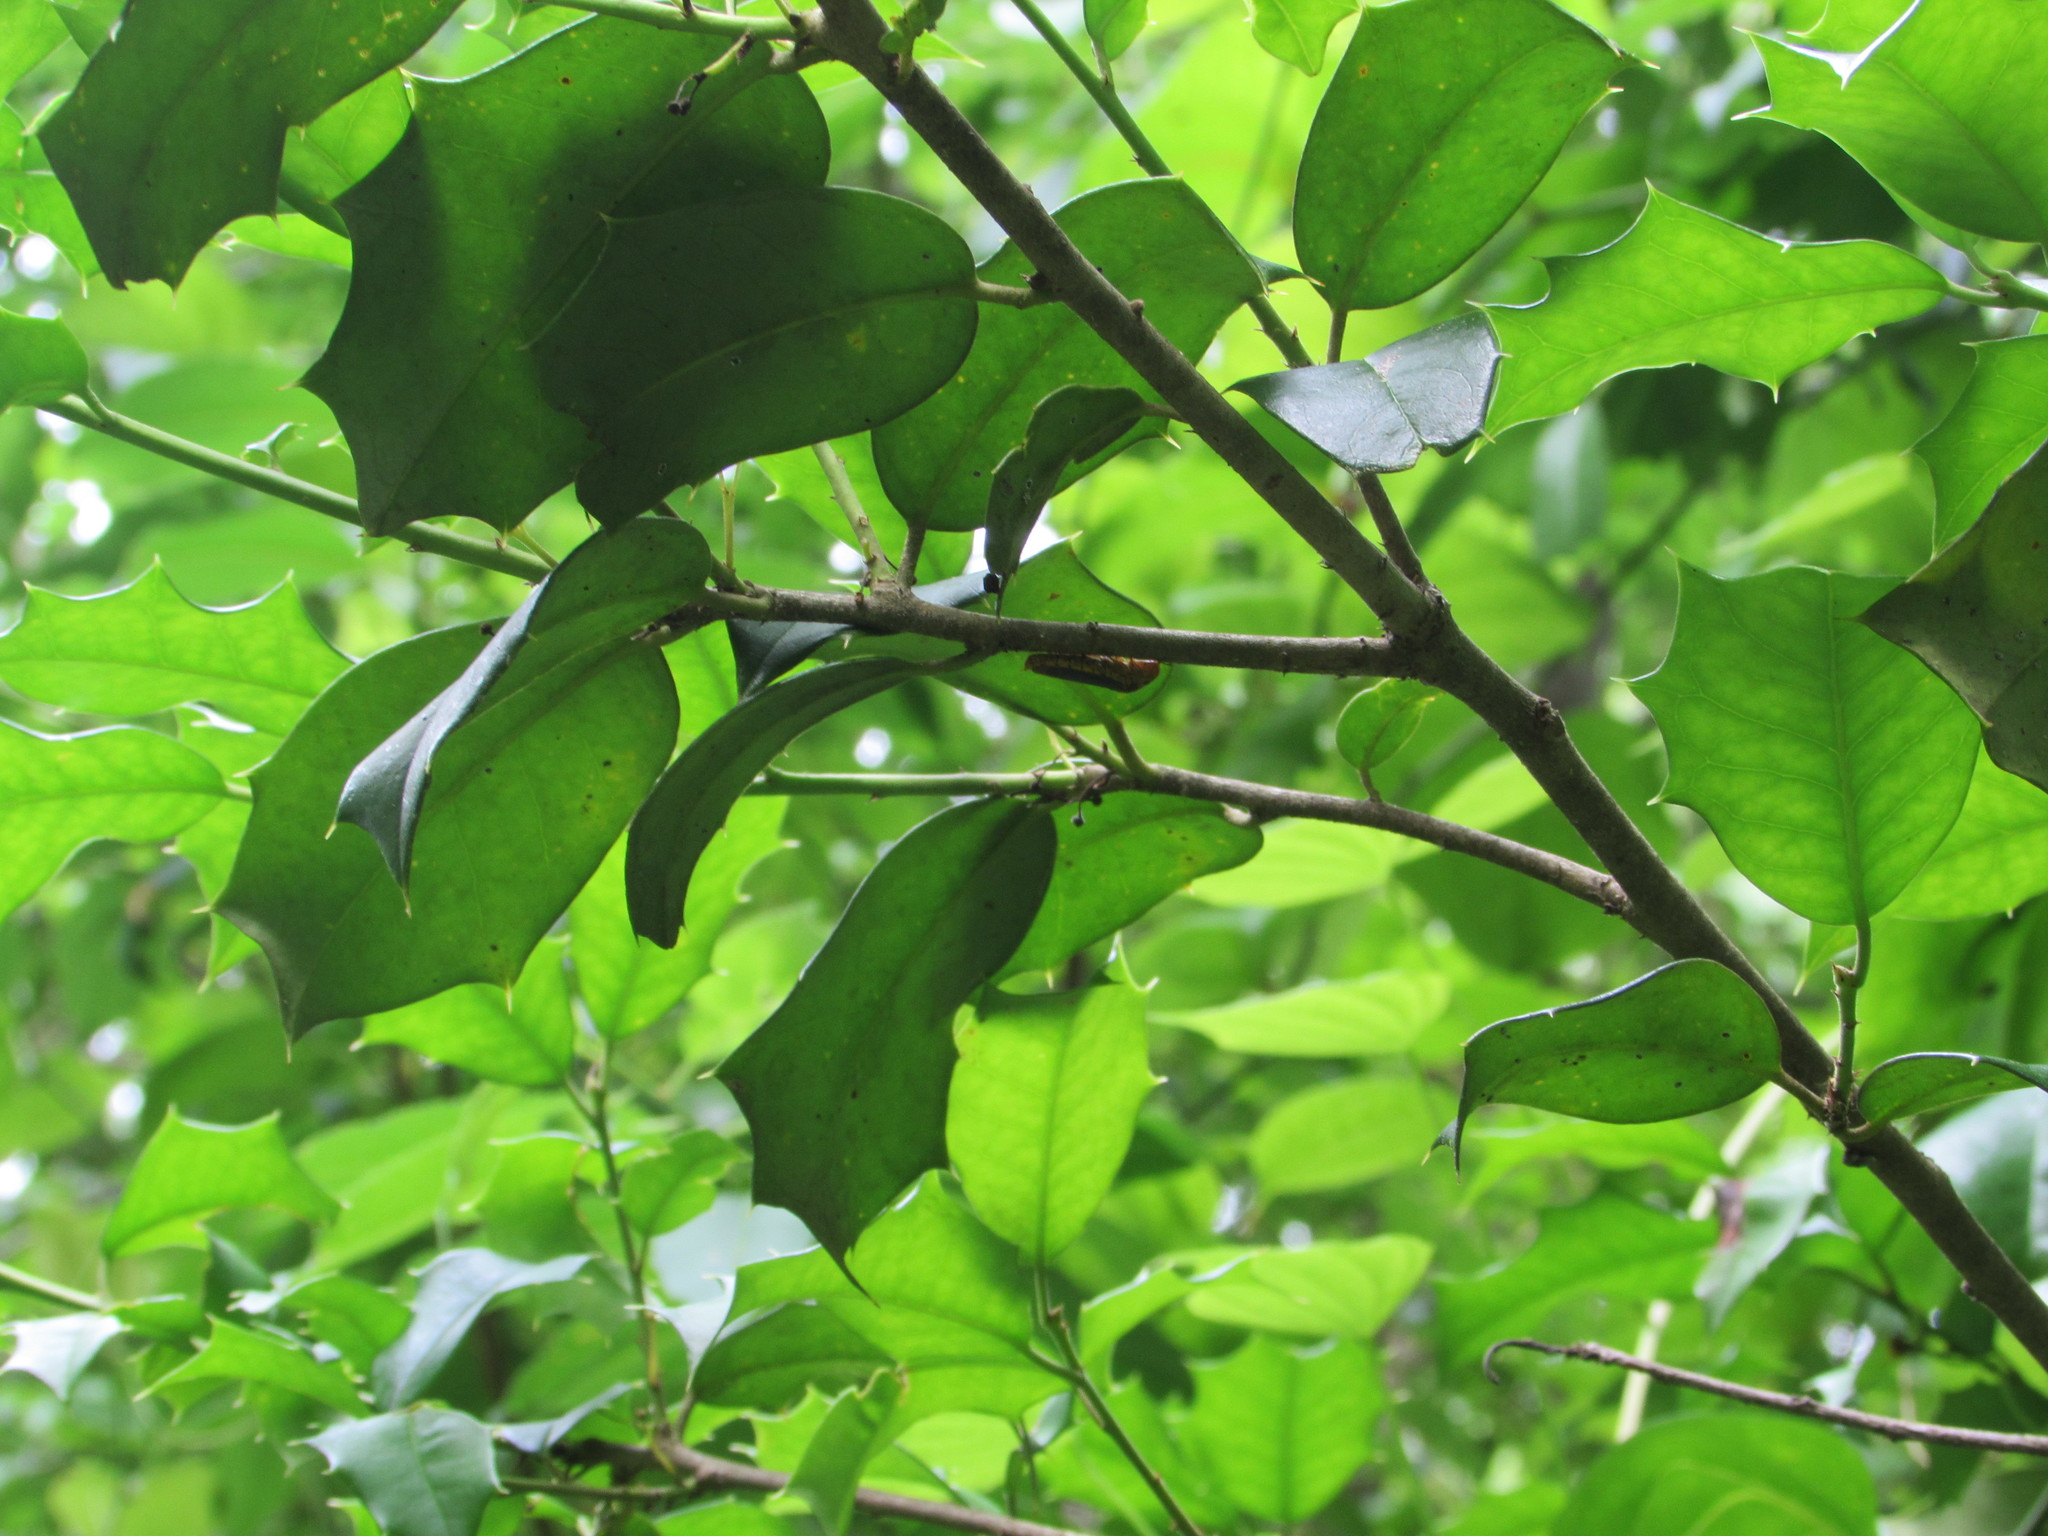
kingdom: Animalia
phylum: Arthropoda
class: Insecta
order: Hemiptera
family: Cicadellidae
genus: Oncometopia
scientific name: Oncometopia orbona
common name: Broad-headed sharpshooter
